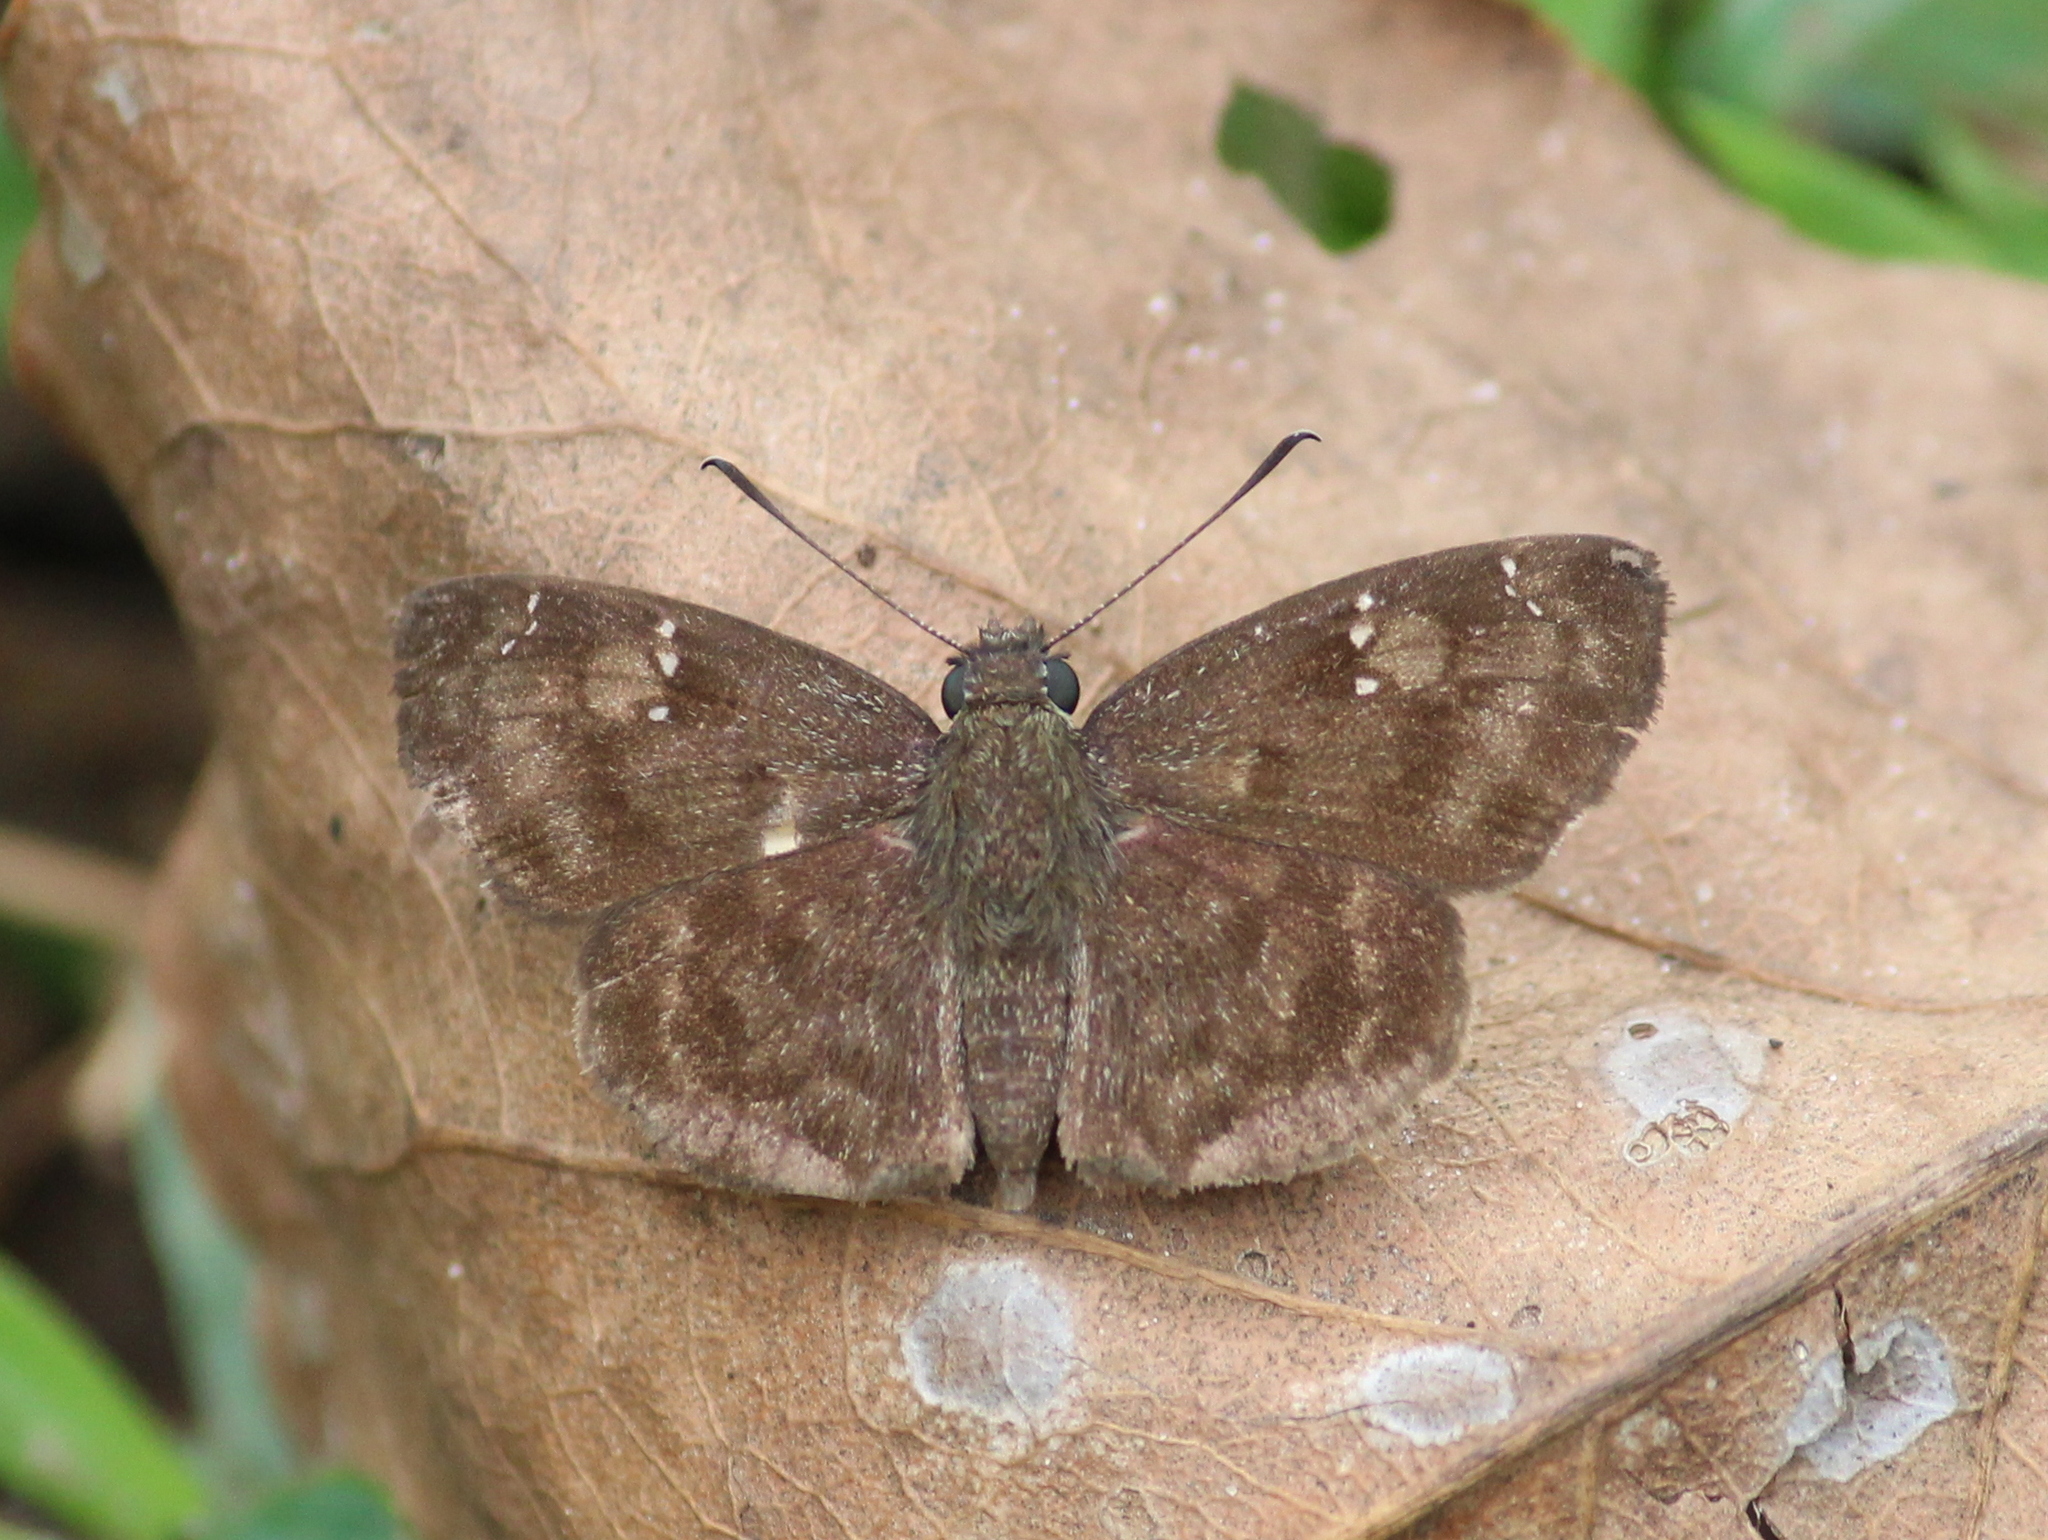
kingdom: Animalia
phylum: Arthropoda
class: Insecta
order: Lepidoptera
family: Hesperiidae
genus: Sarangesa
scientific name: Sarangesa dasahara
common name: Common small flat
